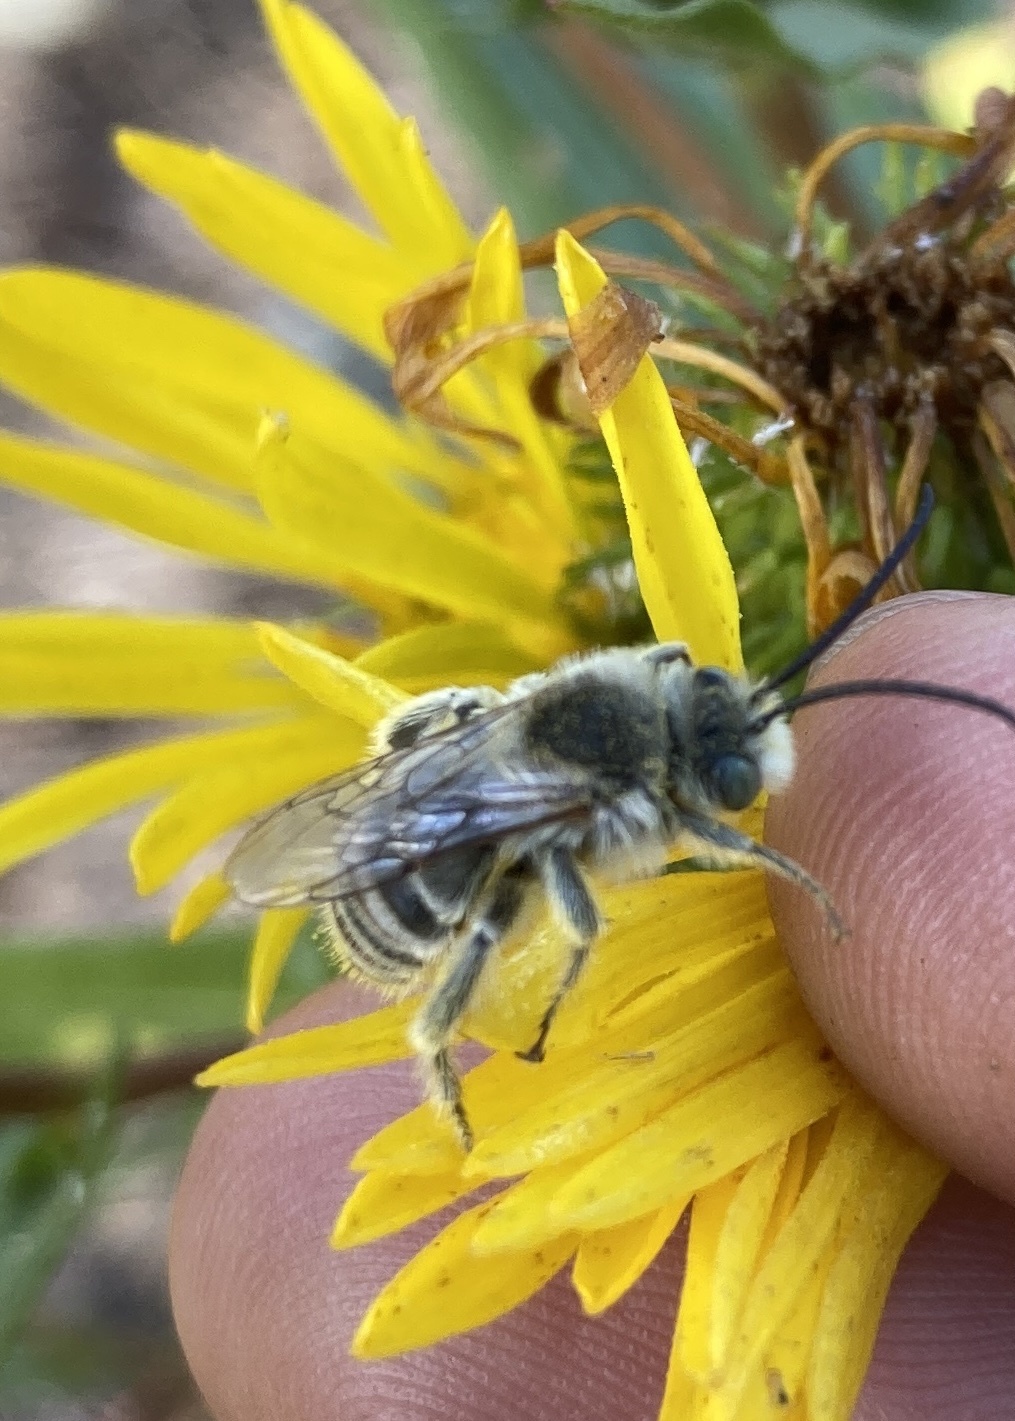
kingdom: Animalia
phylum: Arthropoda
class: Insecta
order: Hymenoptera
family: Apidae
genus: Melissodes
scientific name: Melissodes microstictus
